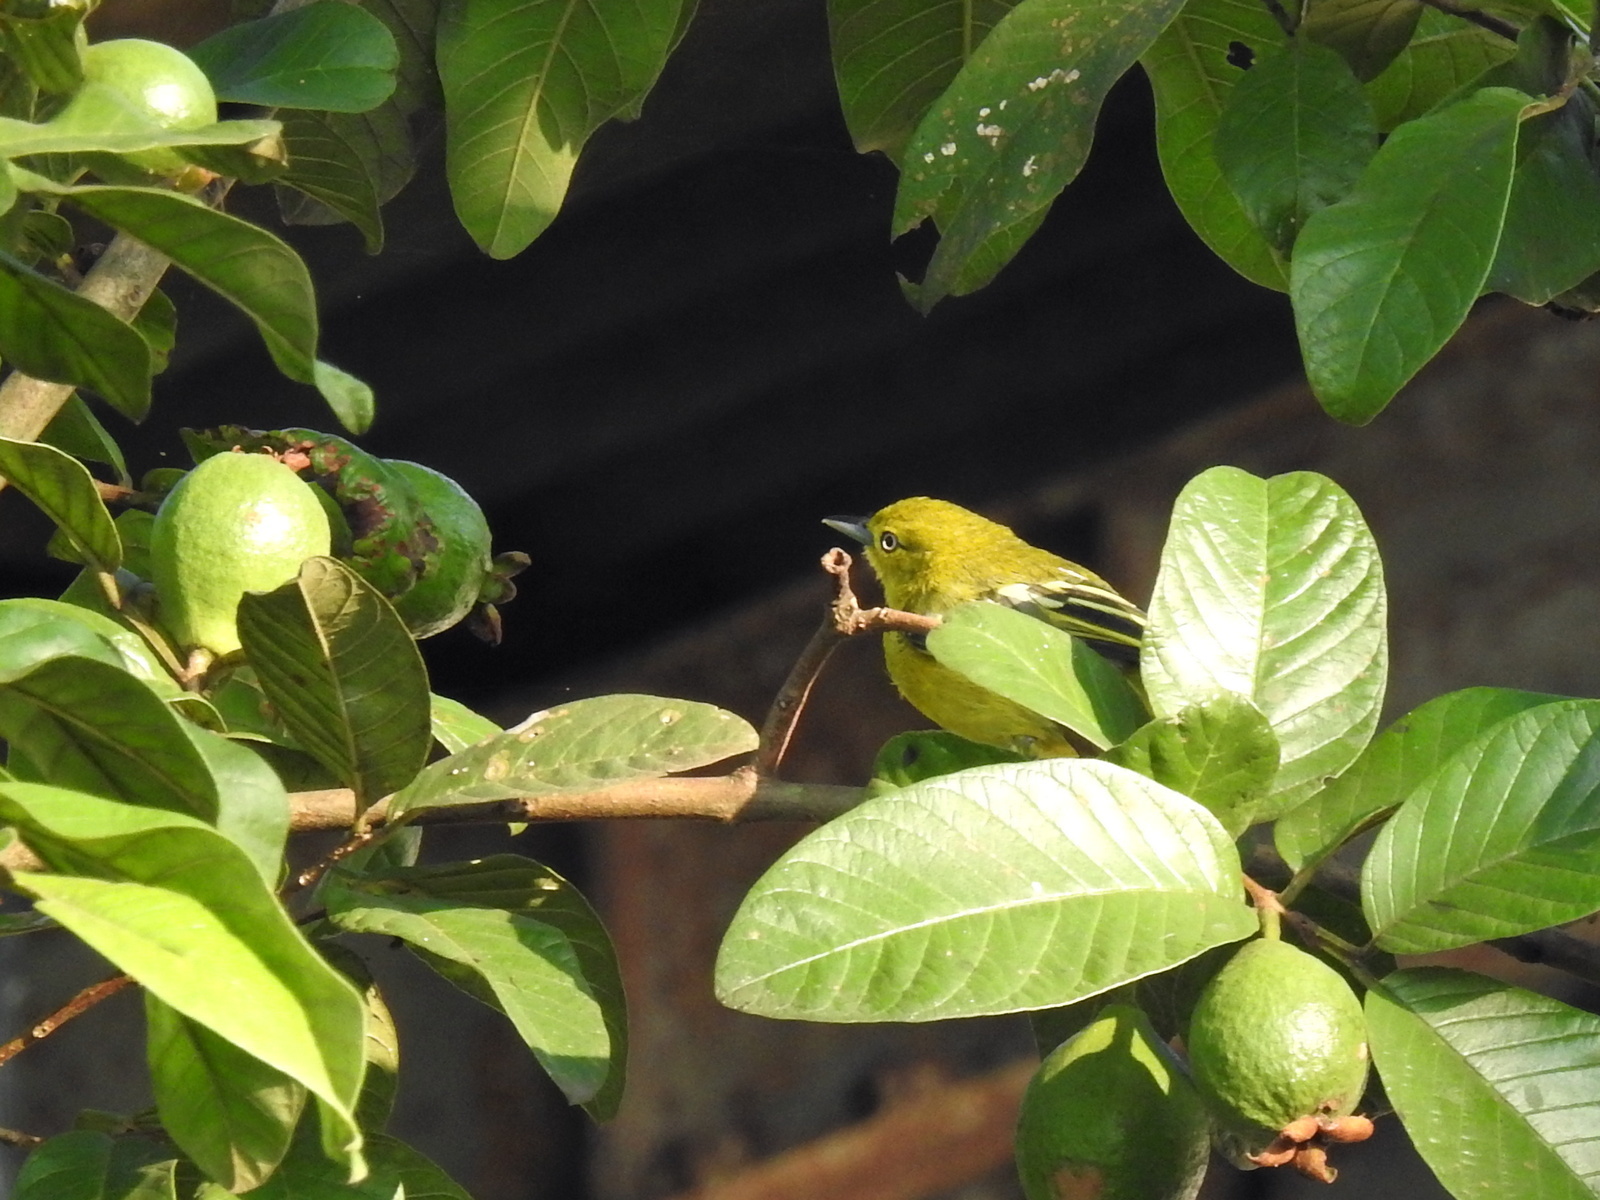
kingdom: Animalia
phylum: Chordata
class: Aves
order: Passeriformes
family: Aegithinidae
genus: Aegithina
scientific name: Aegithina tiphia
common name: Common iora
